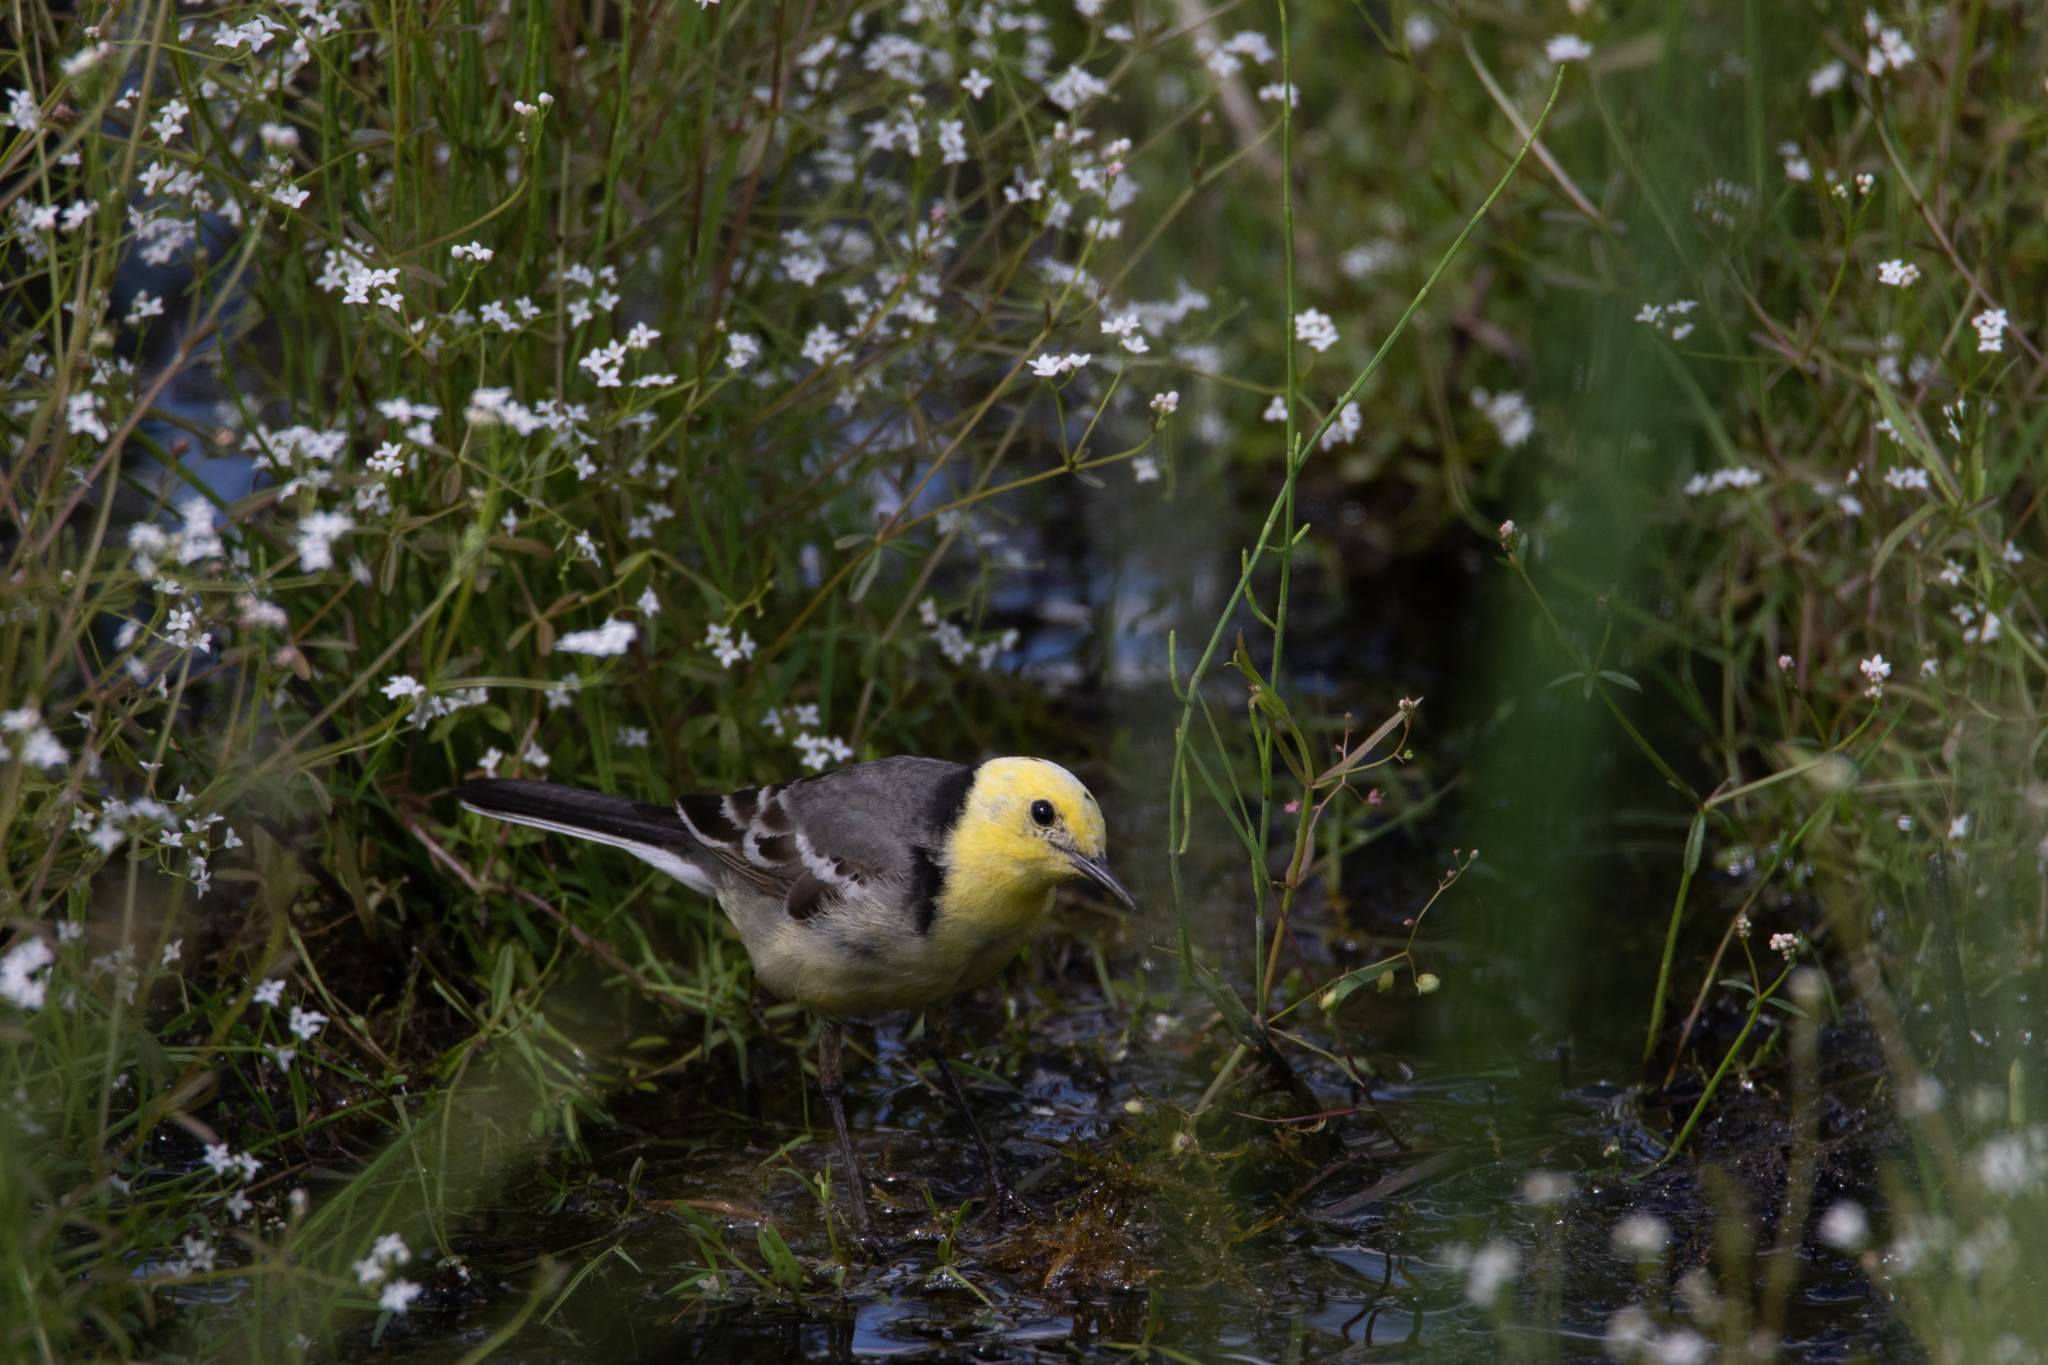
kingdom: Animalia
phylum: Chordata
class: Aves
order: Passeriformes
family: Motacillidae
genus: Motacilla
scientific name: Motacilla citreola
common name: Citrine wagtail
